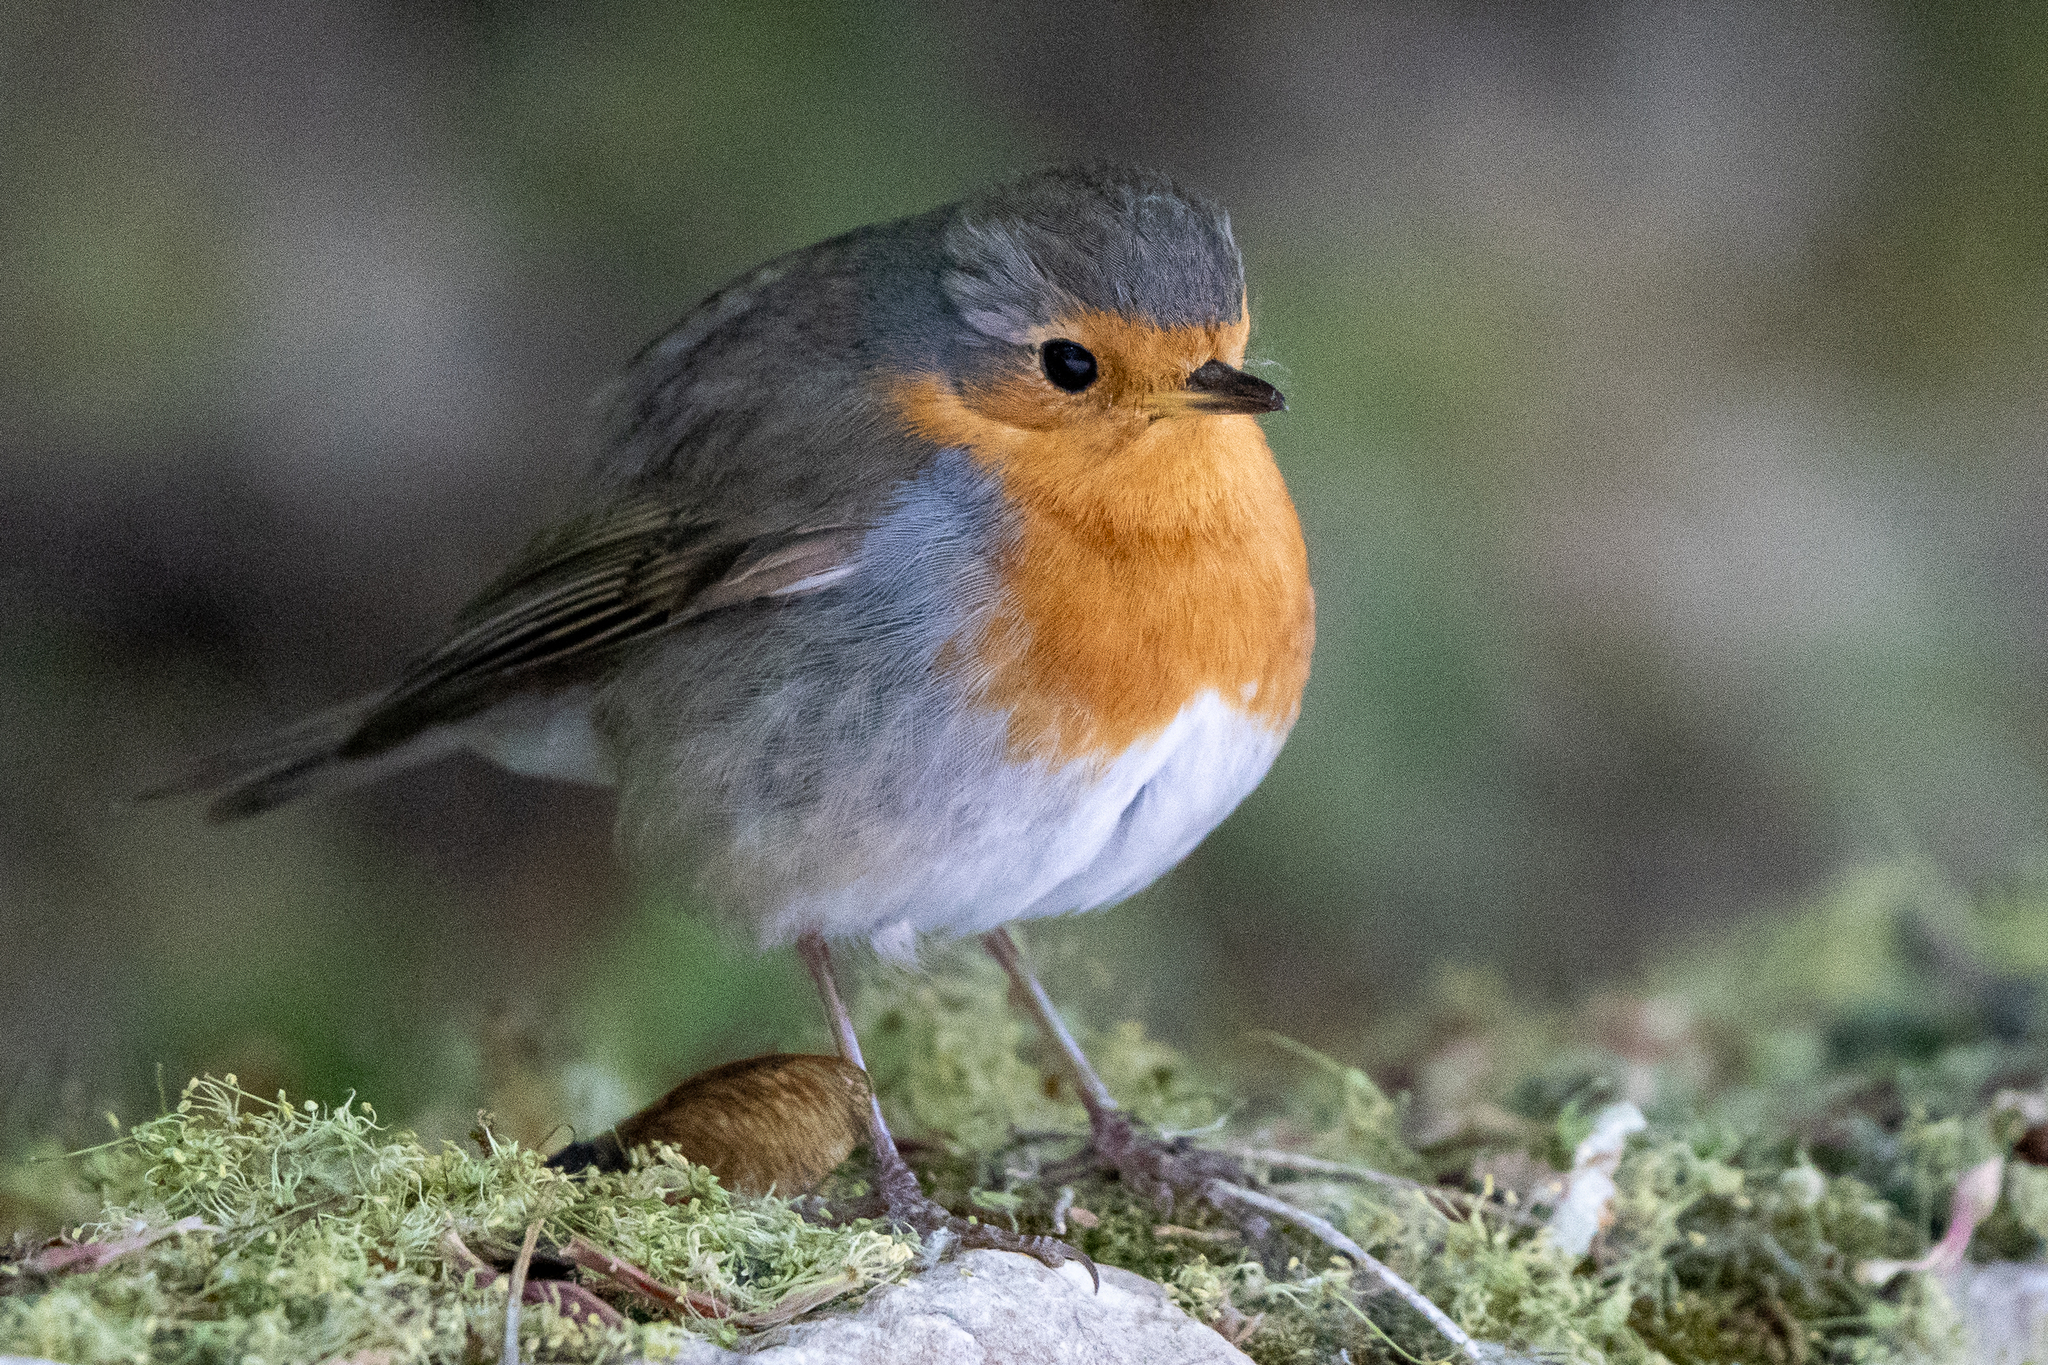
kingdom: Animalia
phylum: Chordata
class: Aves
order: Passeriformes
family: Muscicapidae
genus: Erithacus
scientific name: Erithacus rubecula
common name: European robin
